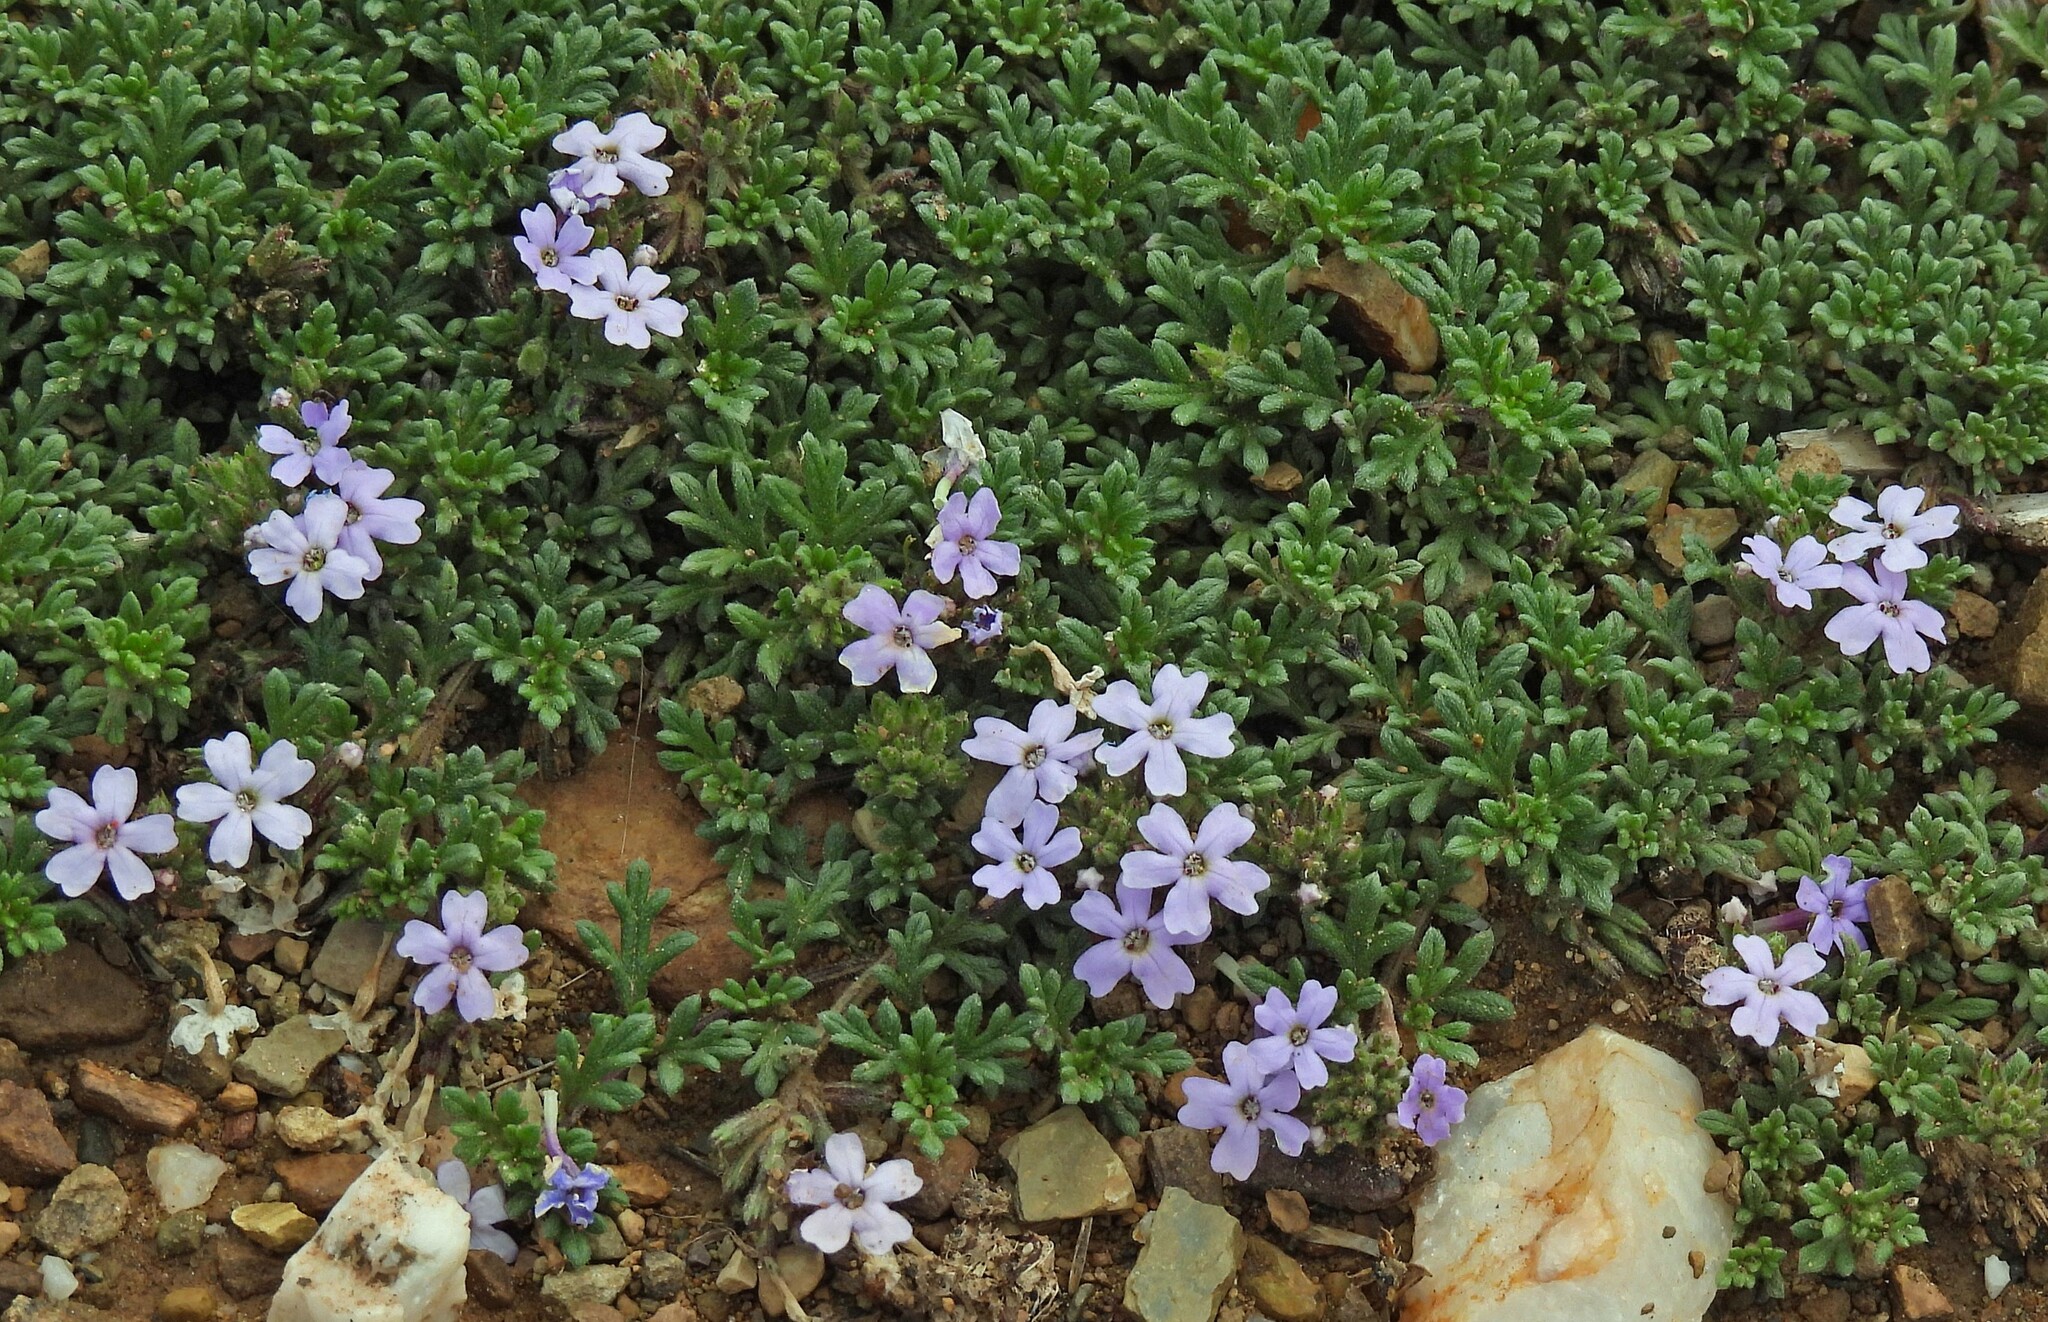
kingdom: Plantae
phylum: Tracheophyta
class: Magnoliopsida
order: Lamiales
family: Verbenaceae
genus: Verbena
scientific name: Verbena microphylla
